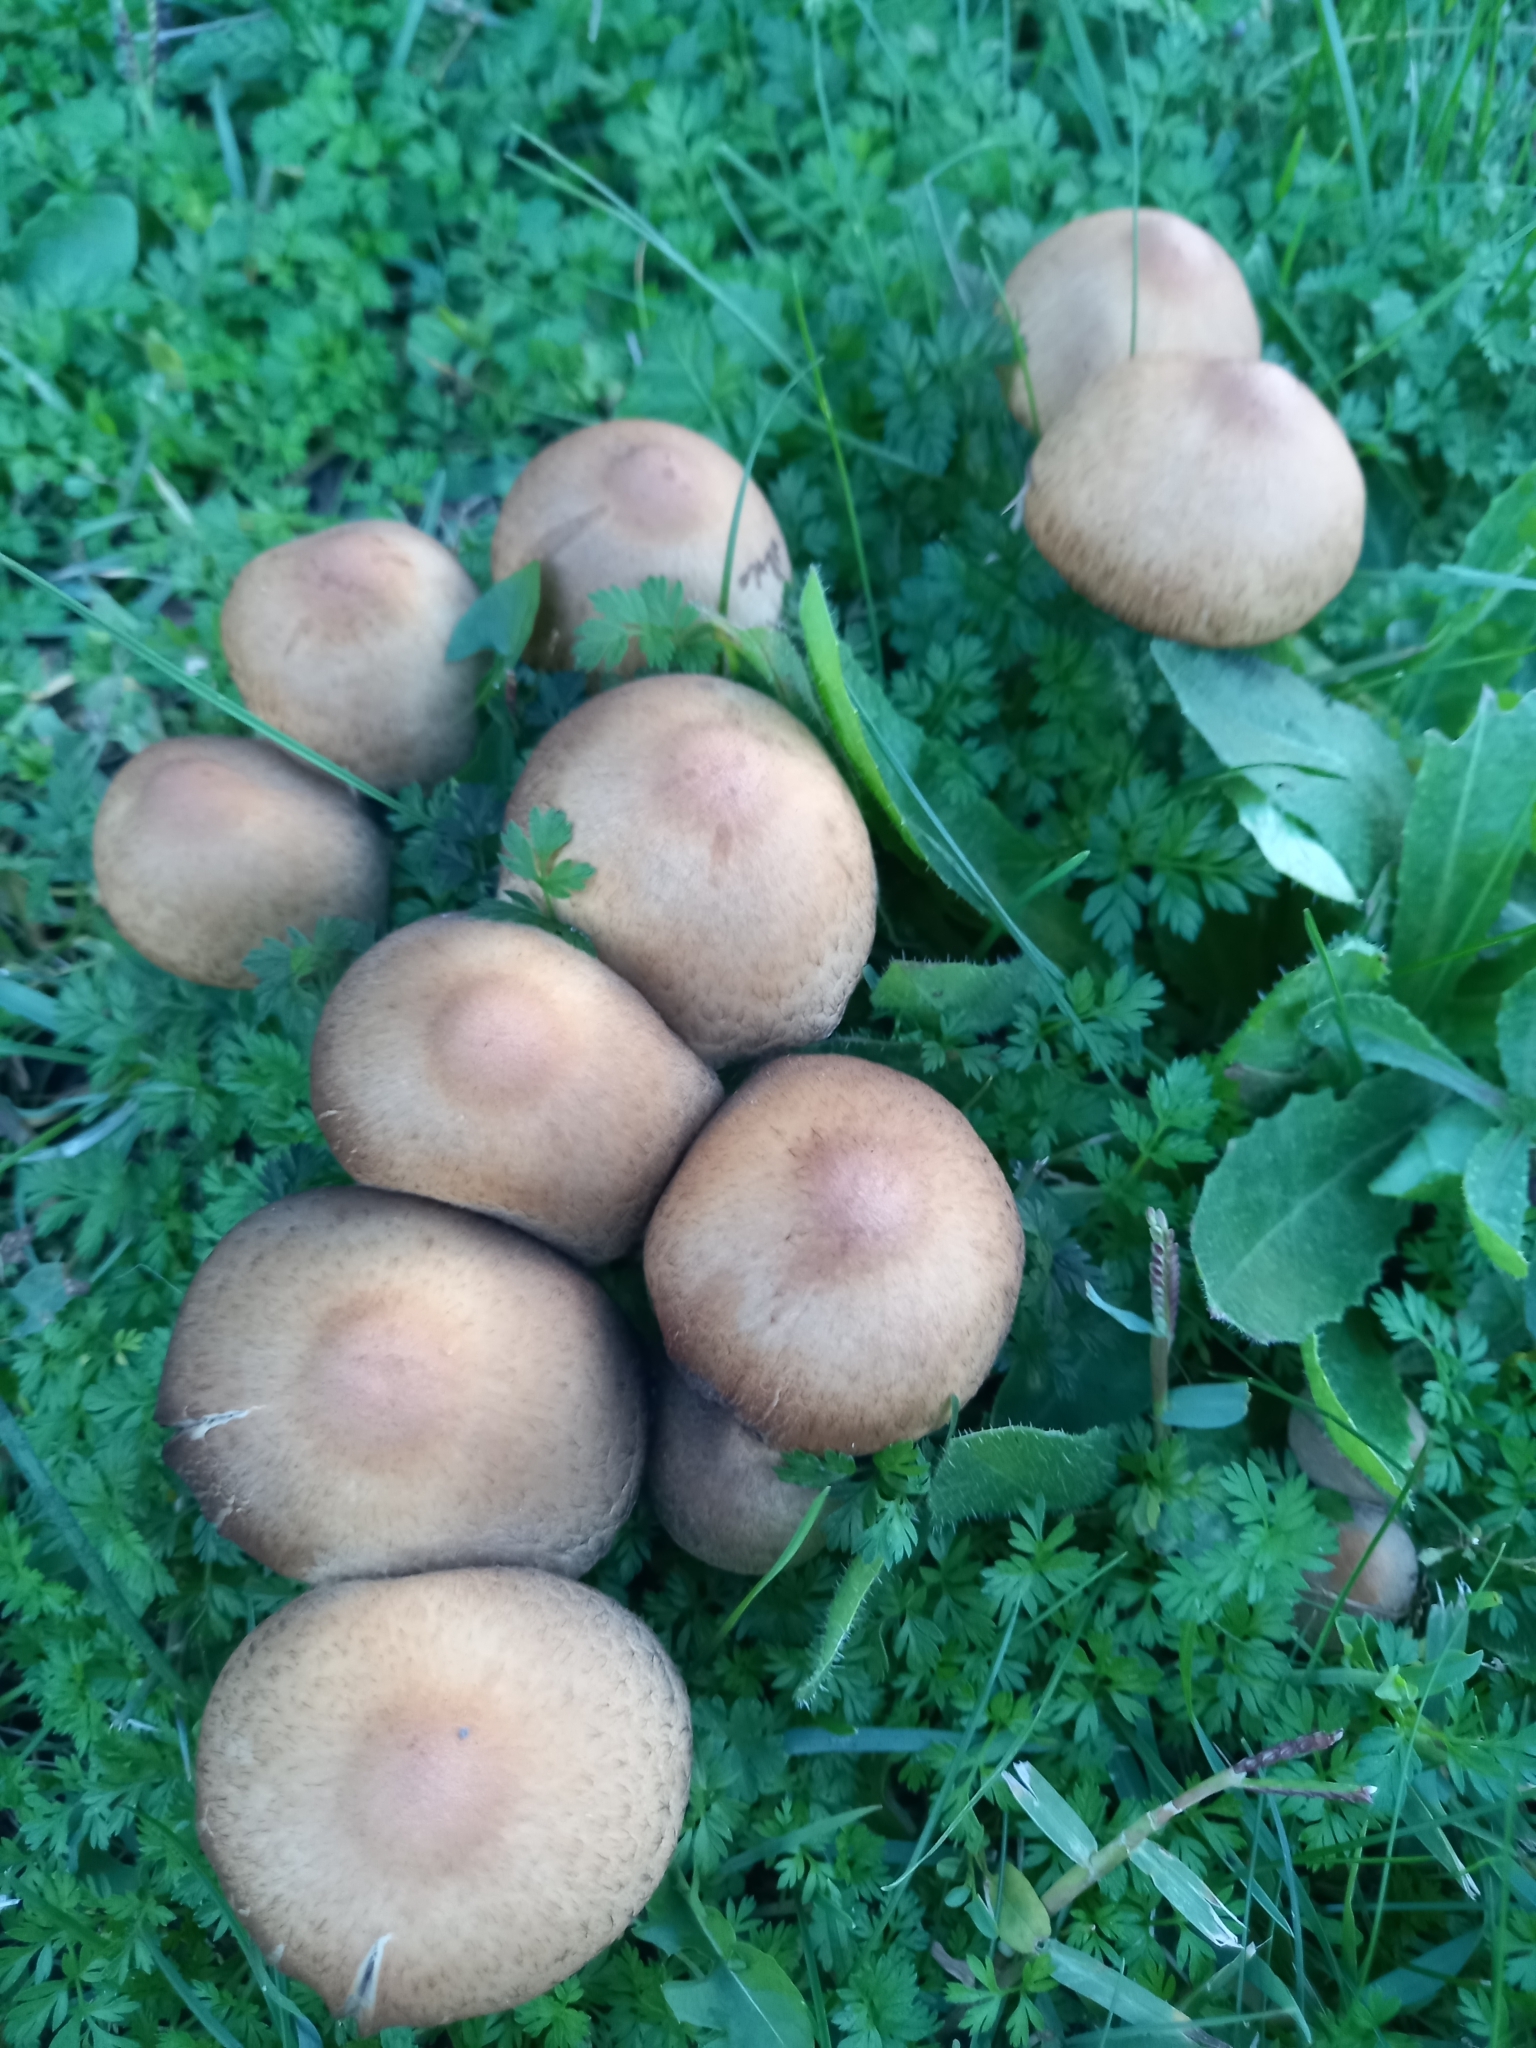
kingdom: Fungi
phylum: Basidiomycota
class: Agaricomycetes
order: Agaricales
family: Psathyrellaceae
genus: Lacrymaria
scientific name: Lacrymaria lacrymabunda
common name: Weeping widow
